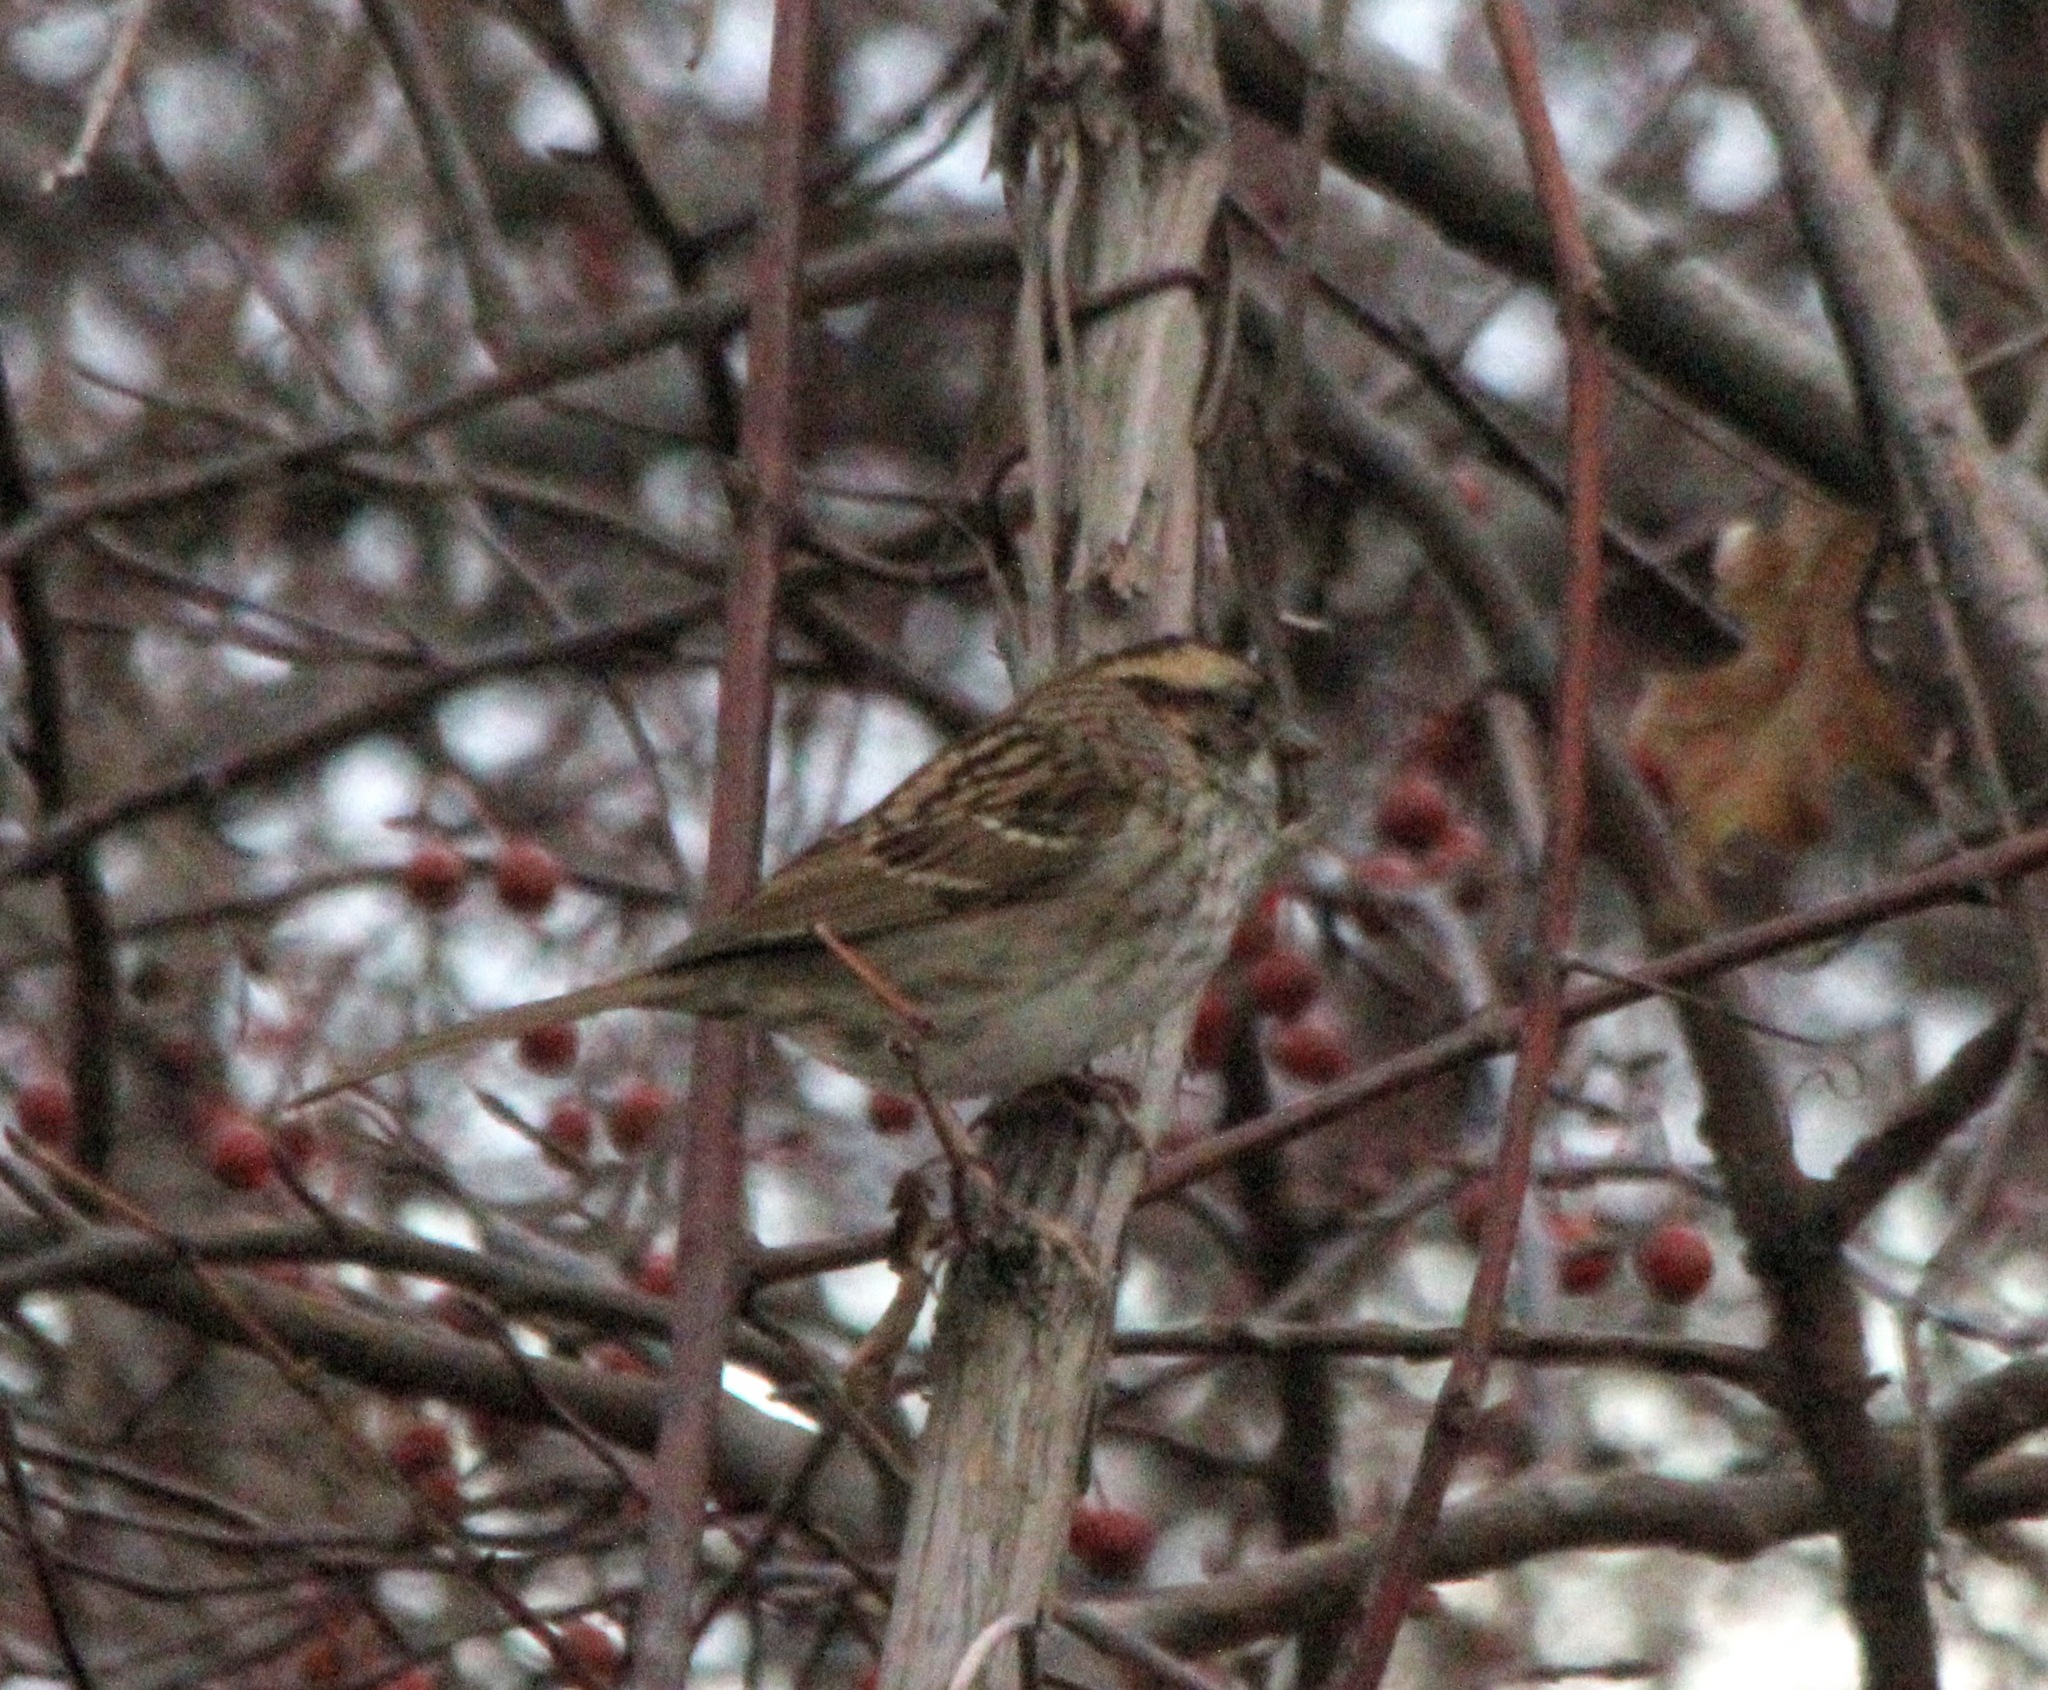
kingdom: Animalia
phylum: Chordata
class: Aves
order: Passeriformes
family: Passerellidae
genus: Zonotrichia
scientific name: Zonotrichia albicollis
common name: White-throated sparrow
